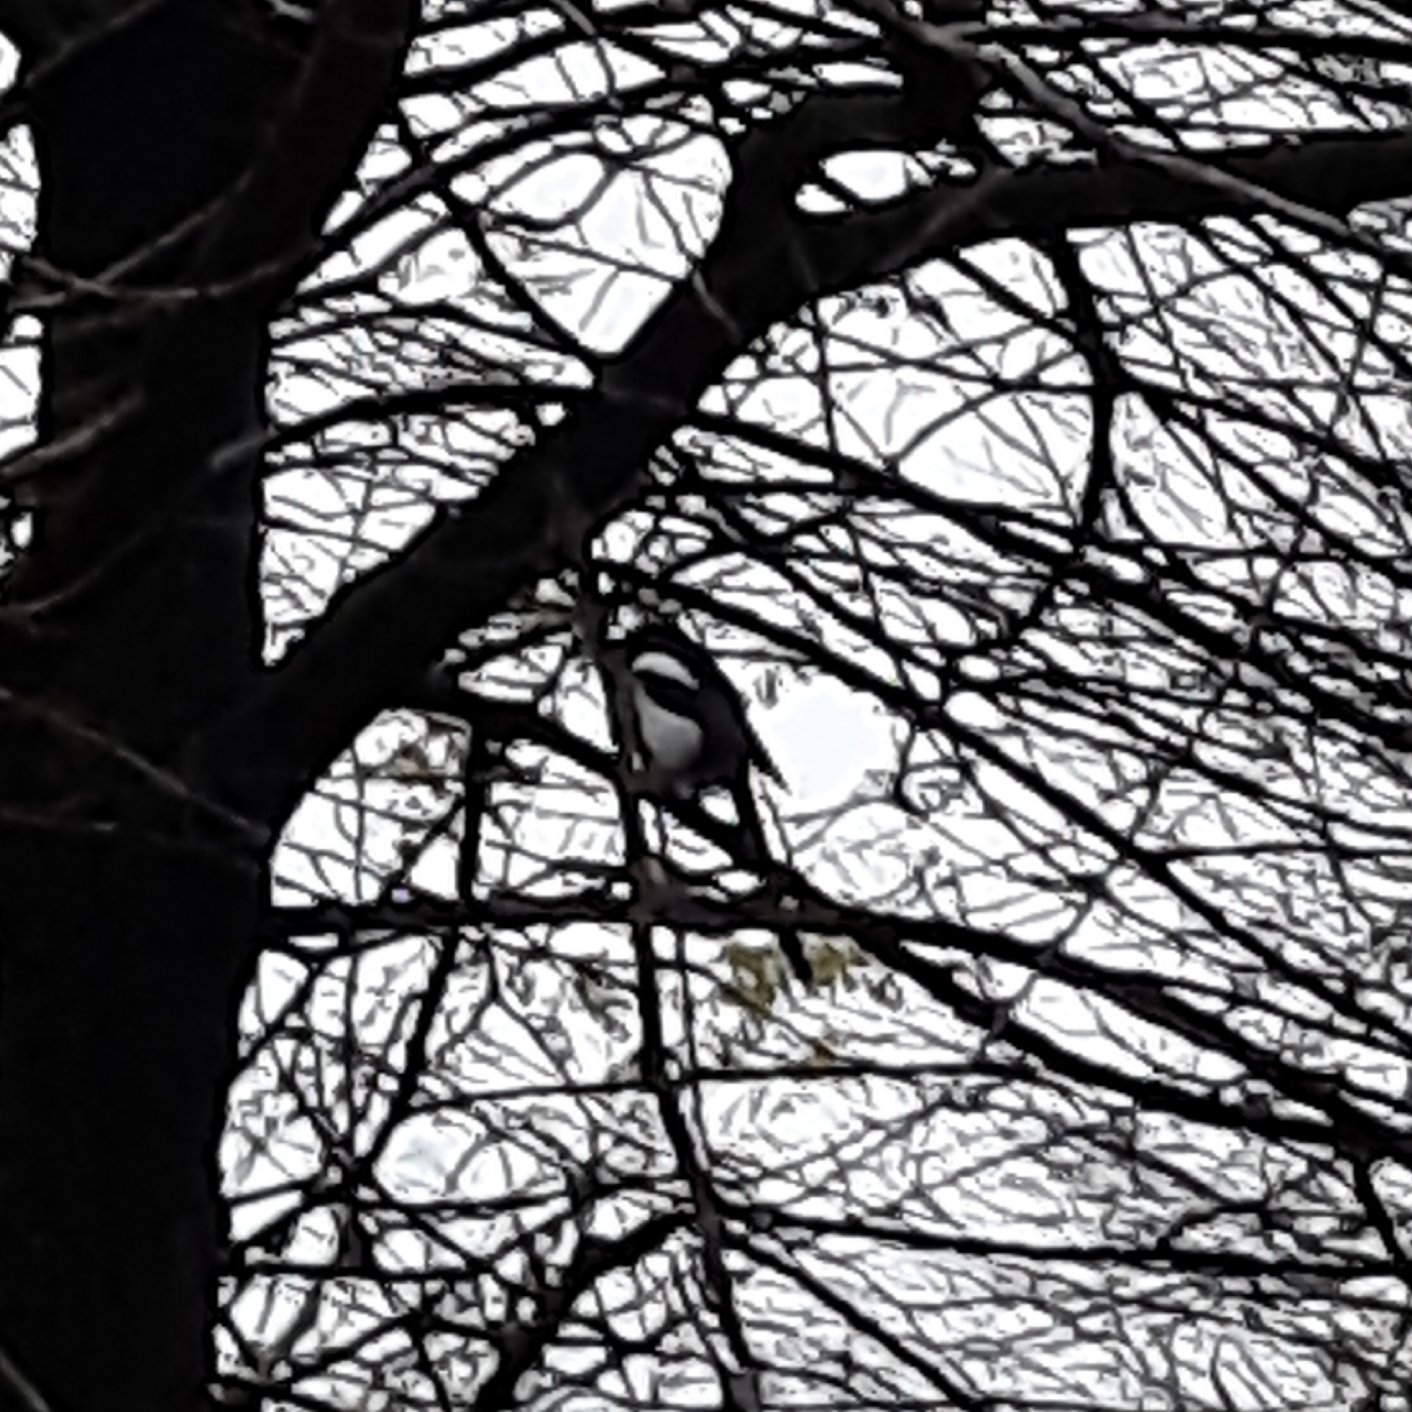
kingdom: Animalia
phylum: Chordata
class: Aves
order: Passeriformes
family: Corvidae
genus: Pica
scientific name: Pica pica
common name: Eurasian magpie
